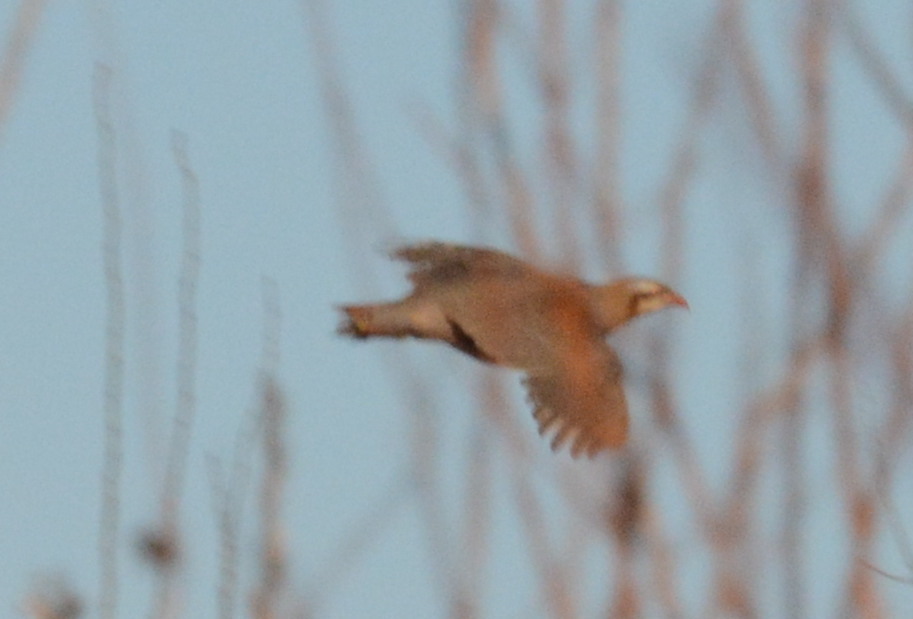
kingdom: Animalia
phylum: Chordata
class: Aves
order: Galliformes
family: Phasianidae
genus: Alectoris
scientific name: Alectoris chukar
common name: Chukar
